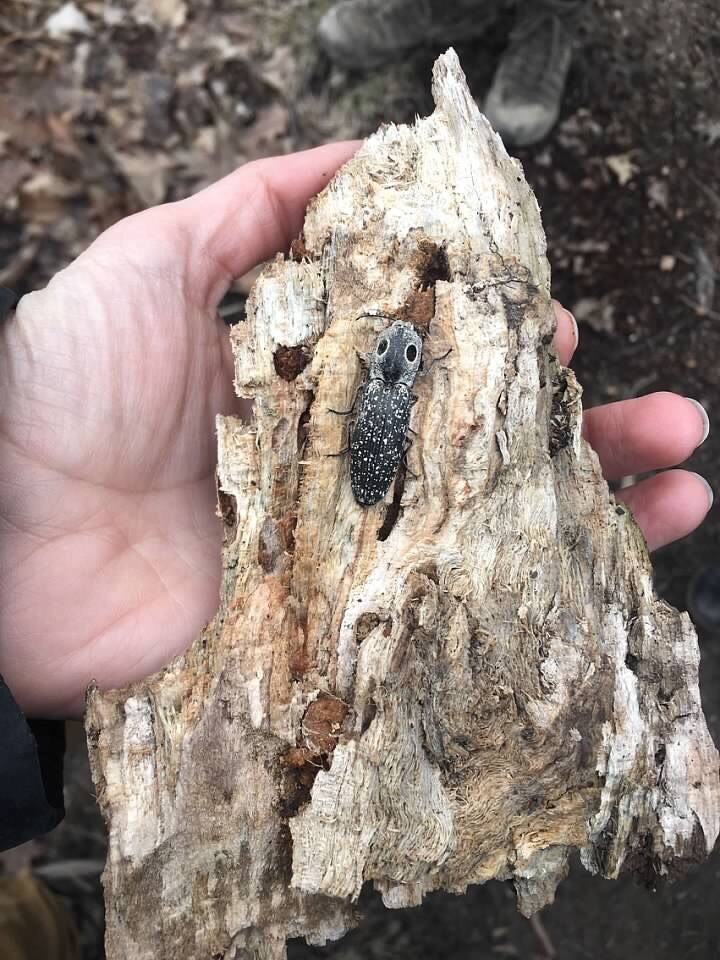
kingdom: Animalia
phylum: Arthropoda
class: Insecta
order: Coleoptera
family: Elateridae
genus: Alaus
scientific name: Alaus oculatus
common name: Eastern eyed click beetle
